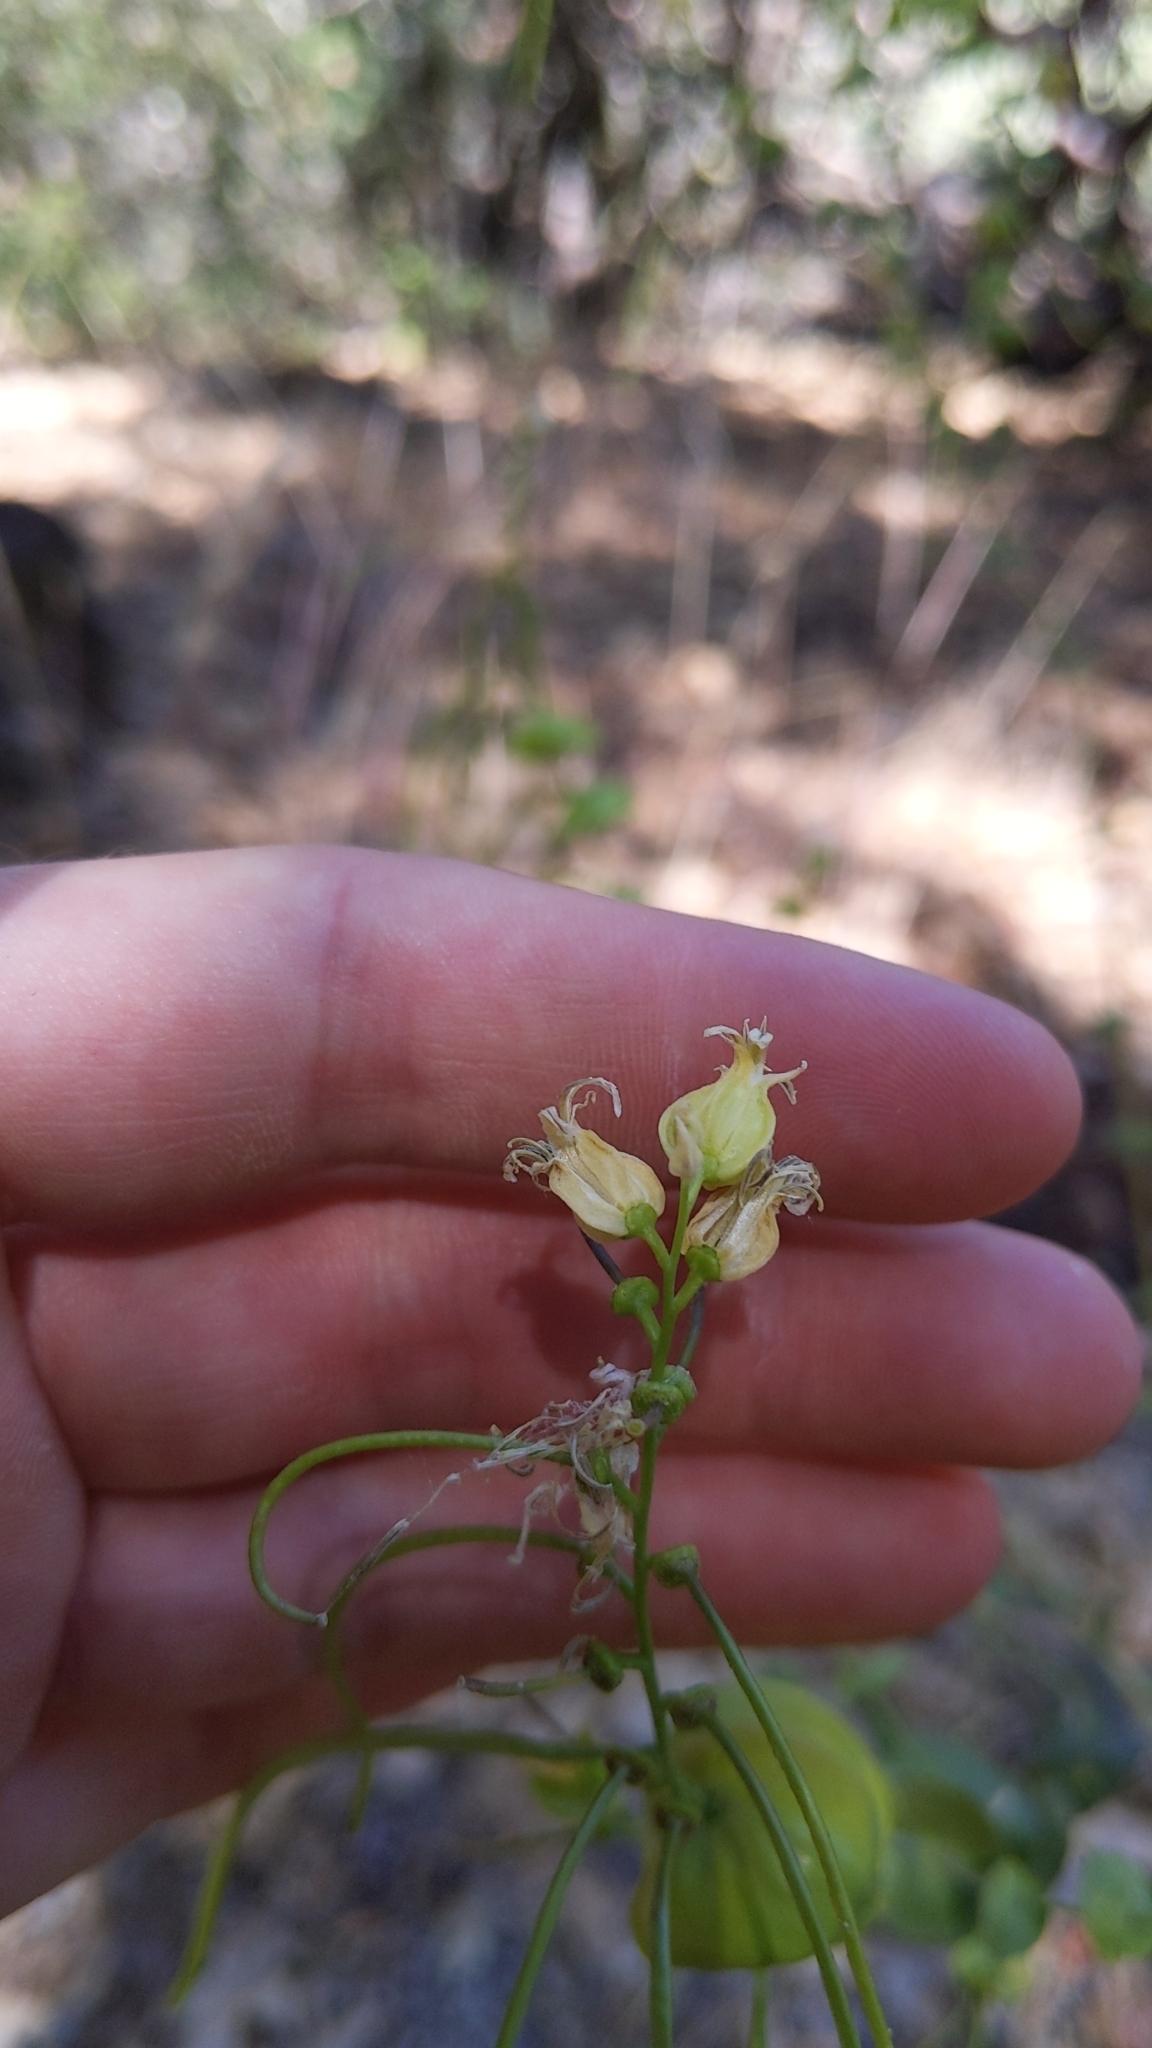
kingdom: Plantae
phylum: Tracheophyta
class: Magnoliopsida
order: Brassicales
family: Brassicaceae
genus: Streptanthus
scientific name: Streptanthus tortuosus
